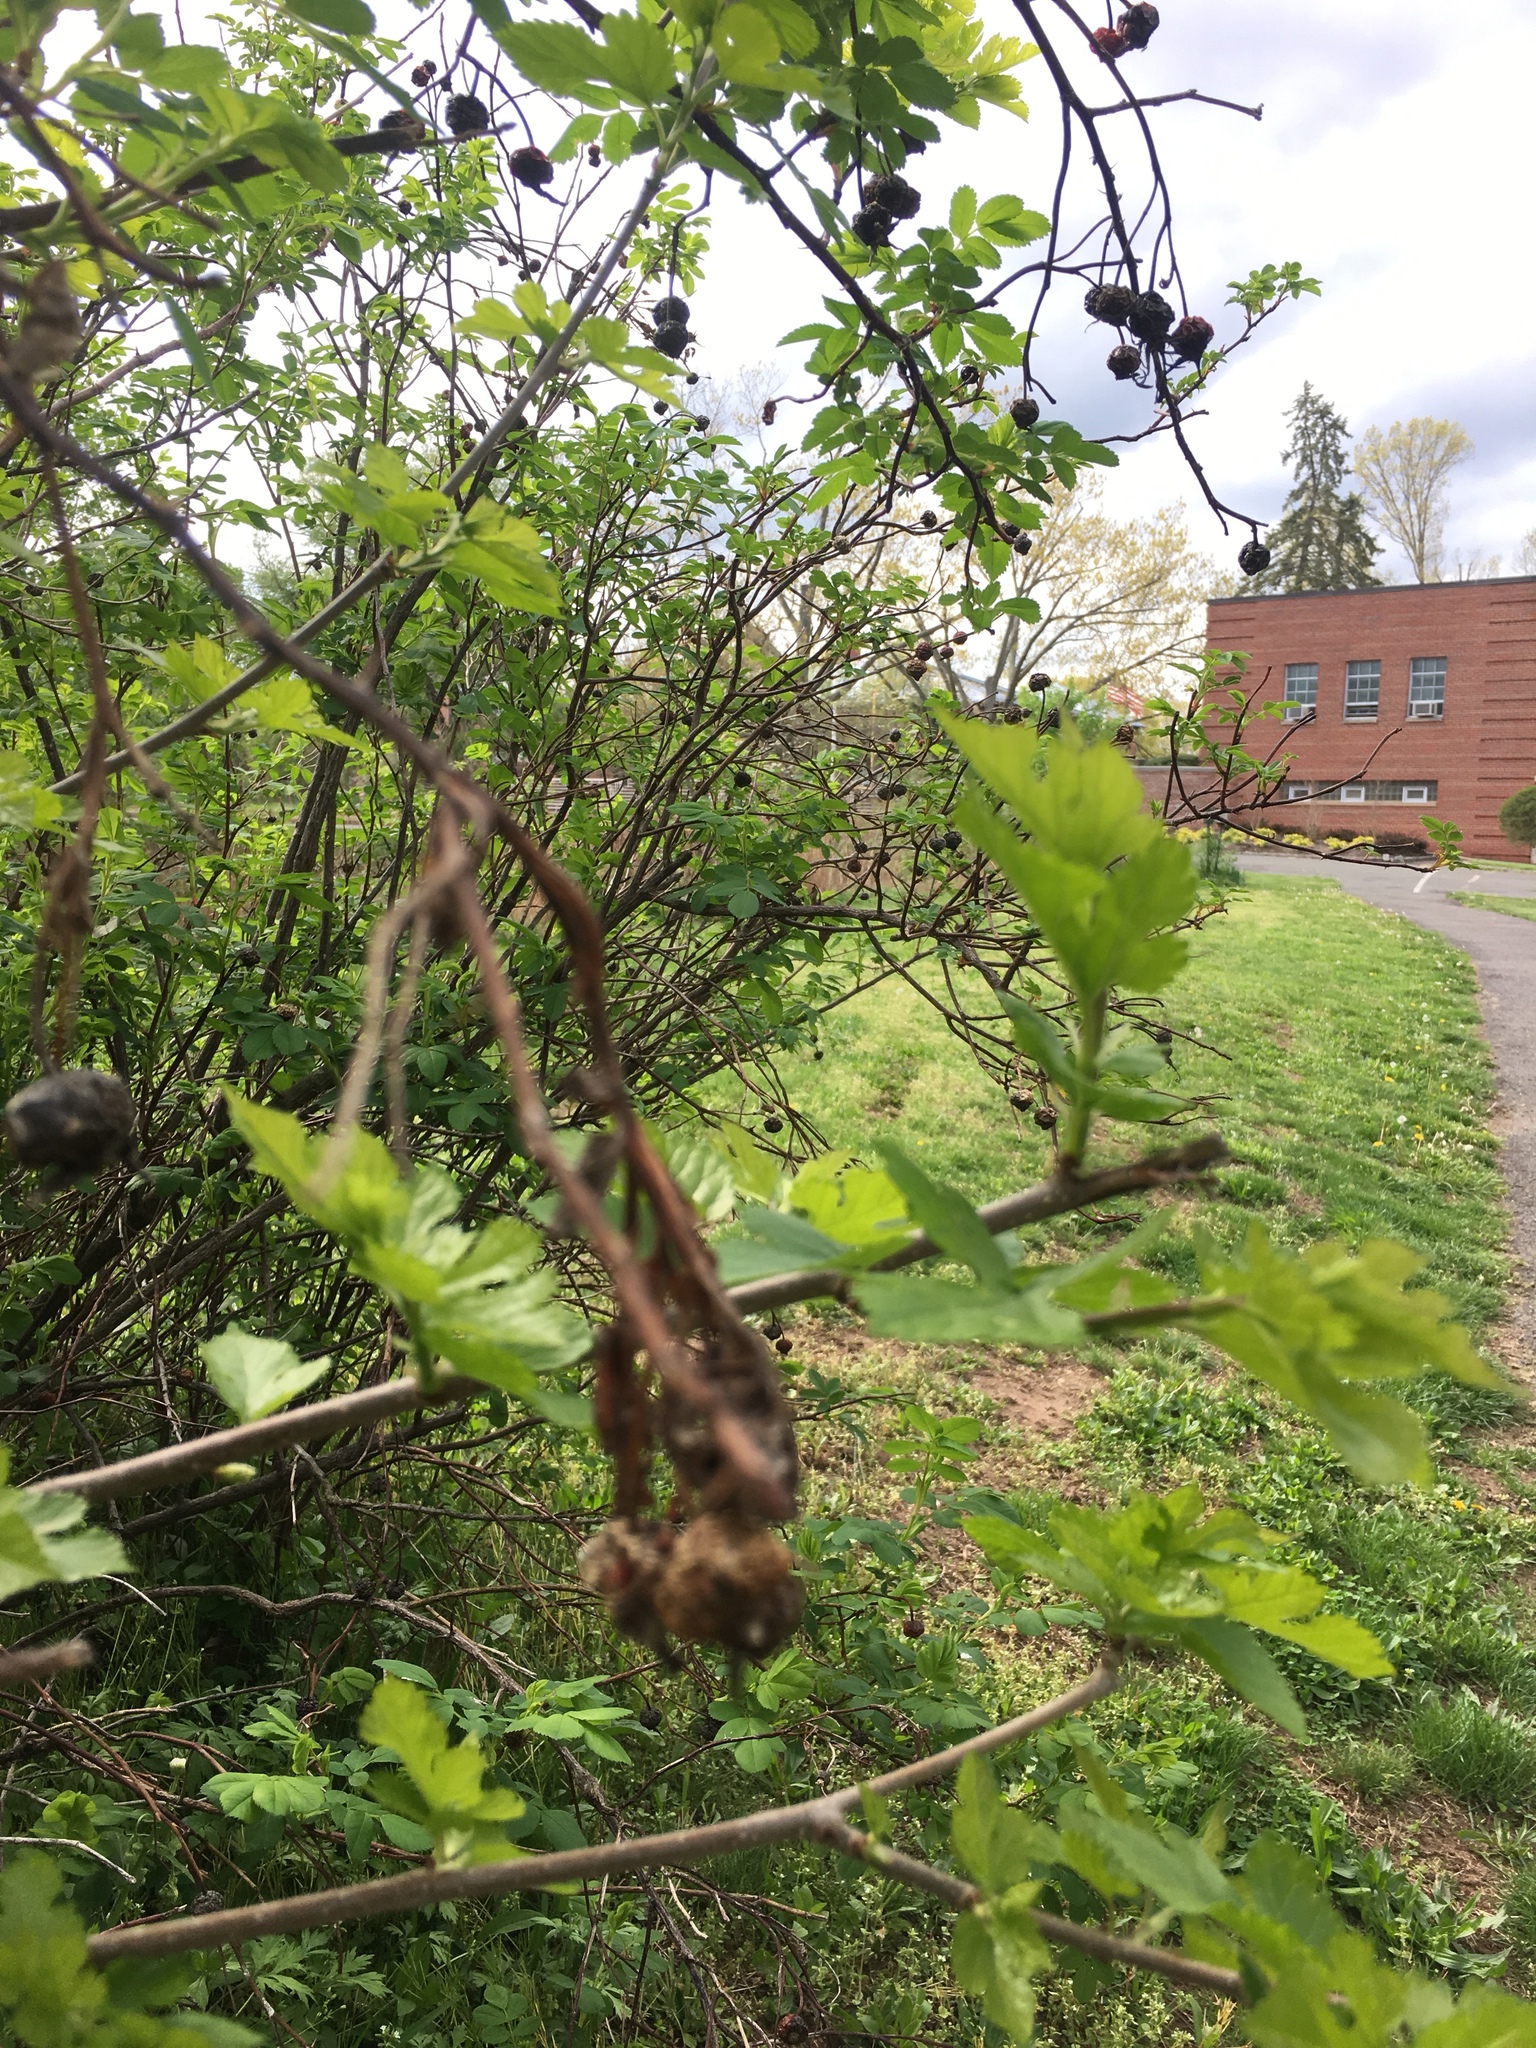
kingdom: Plantae
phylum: Tracheophyta
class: Magnoliopsida
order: Rosales
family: Rosaceae
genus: Rosa
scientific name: Rosa palustris
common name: Swamp rose
